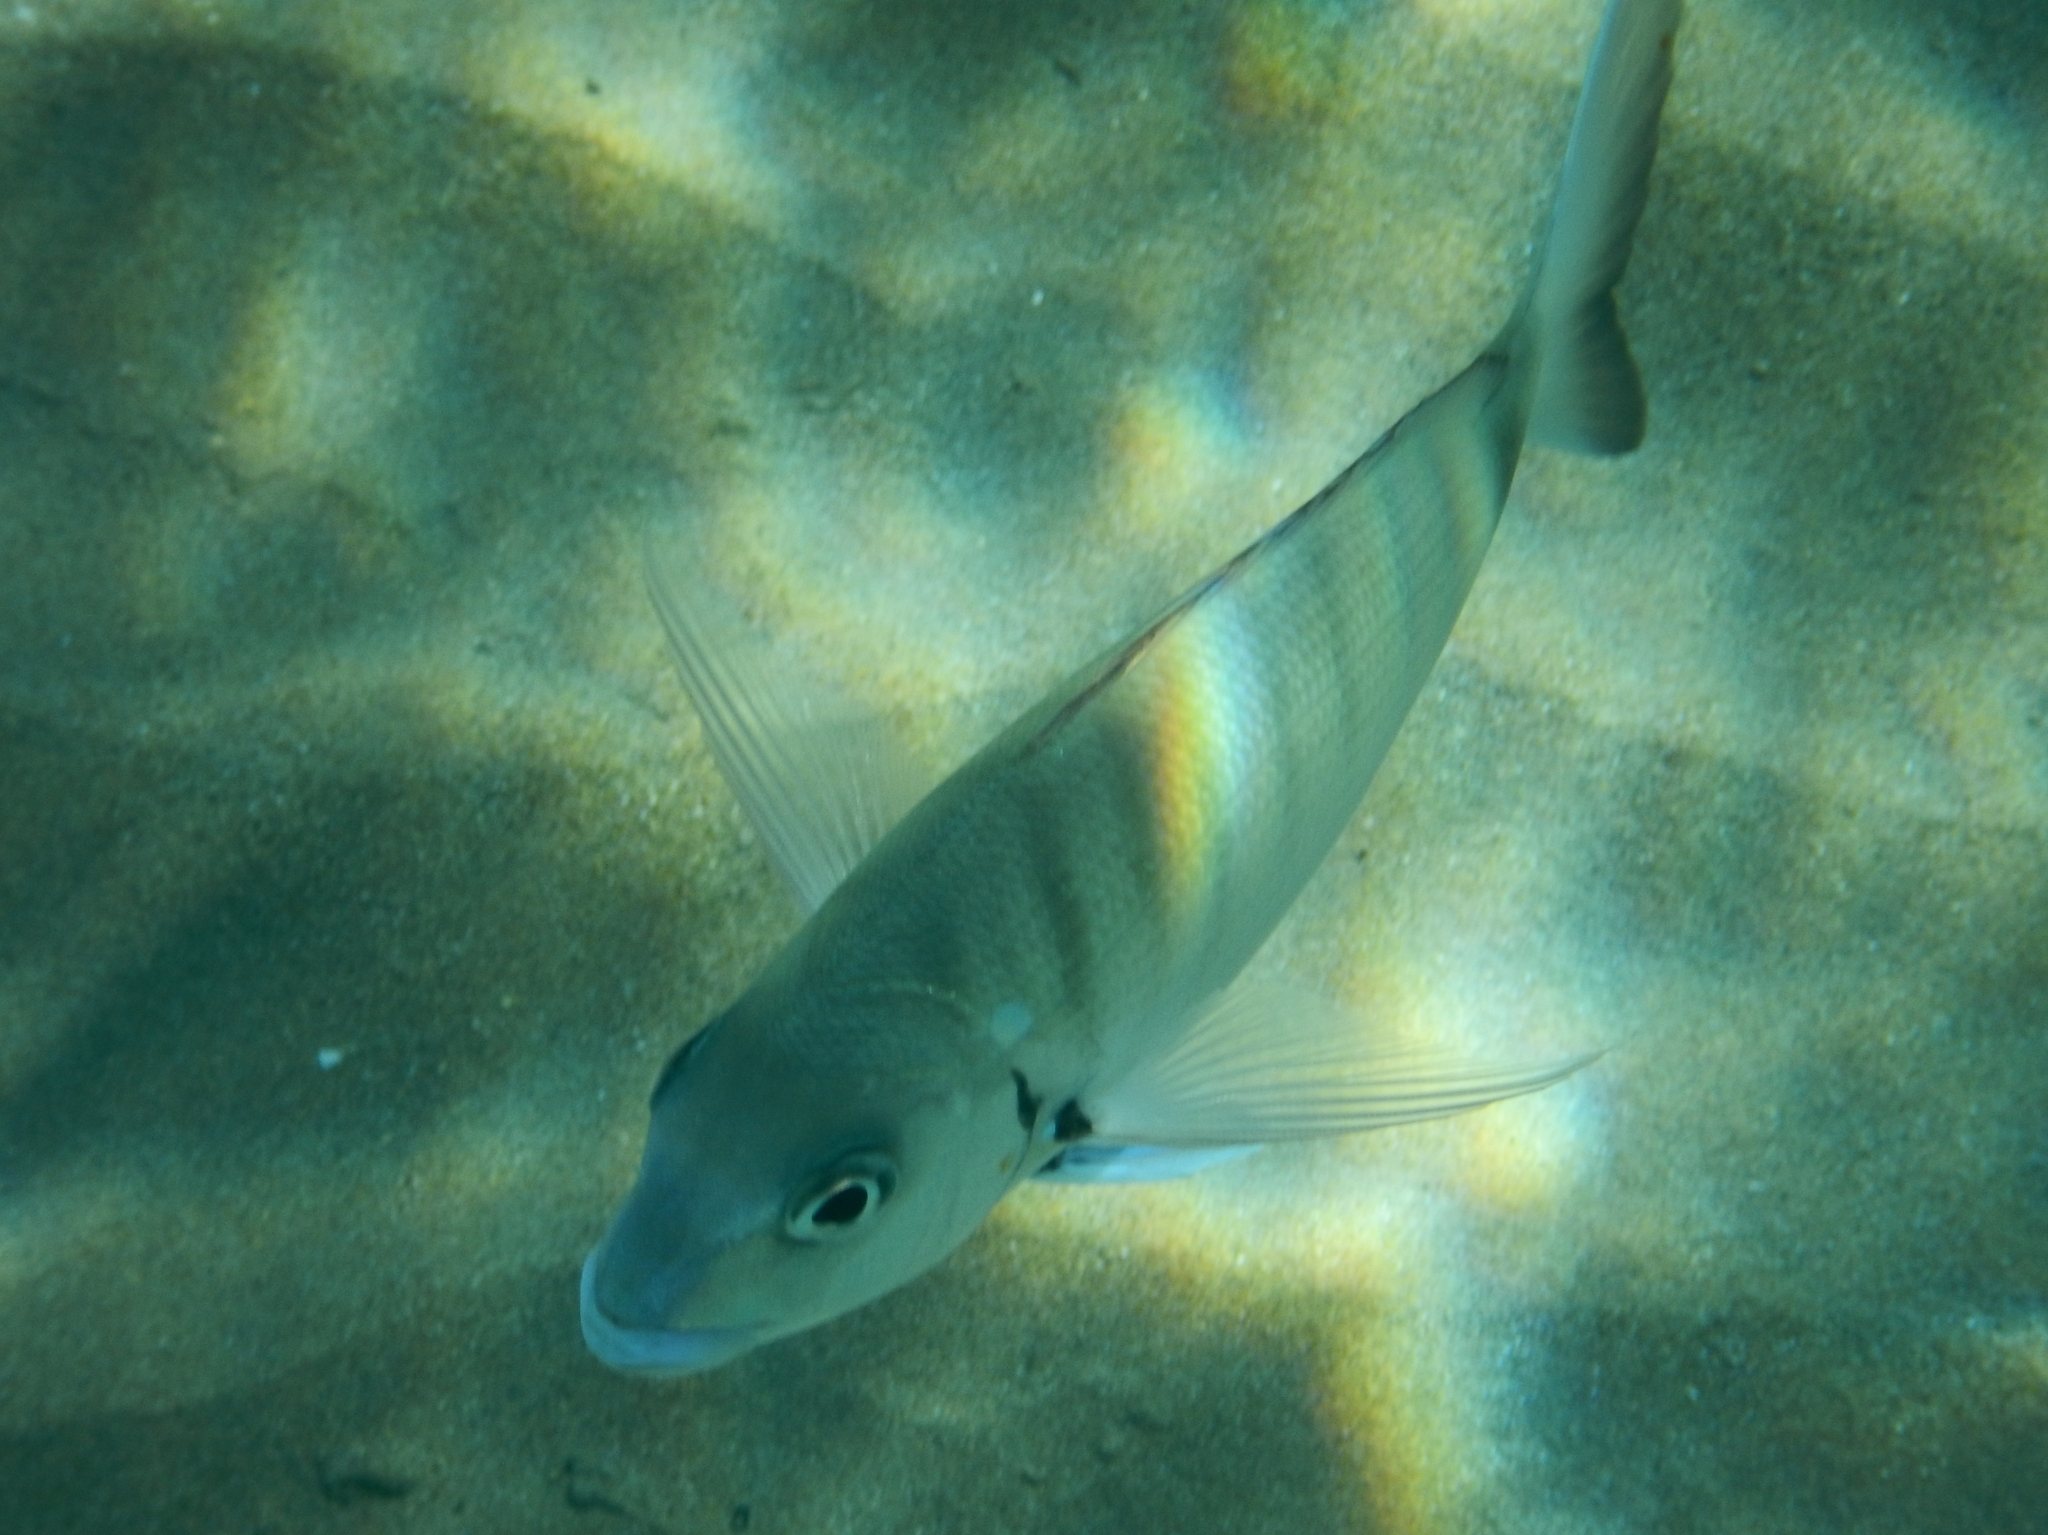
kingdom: Animalia
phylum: Chordata
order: Perciformes
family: Sparidae
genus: Diplodus
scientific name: Diplodus sargus
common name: White seabream
